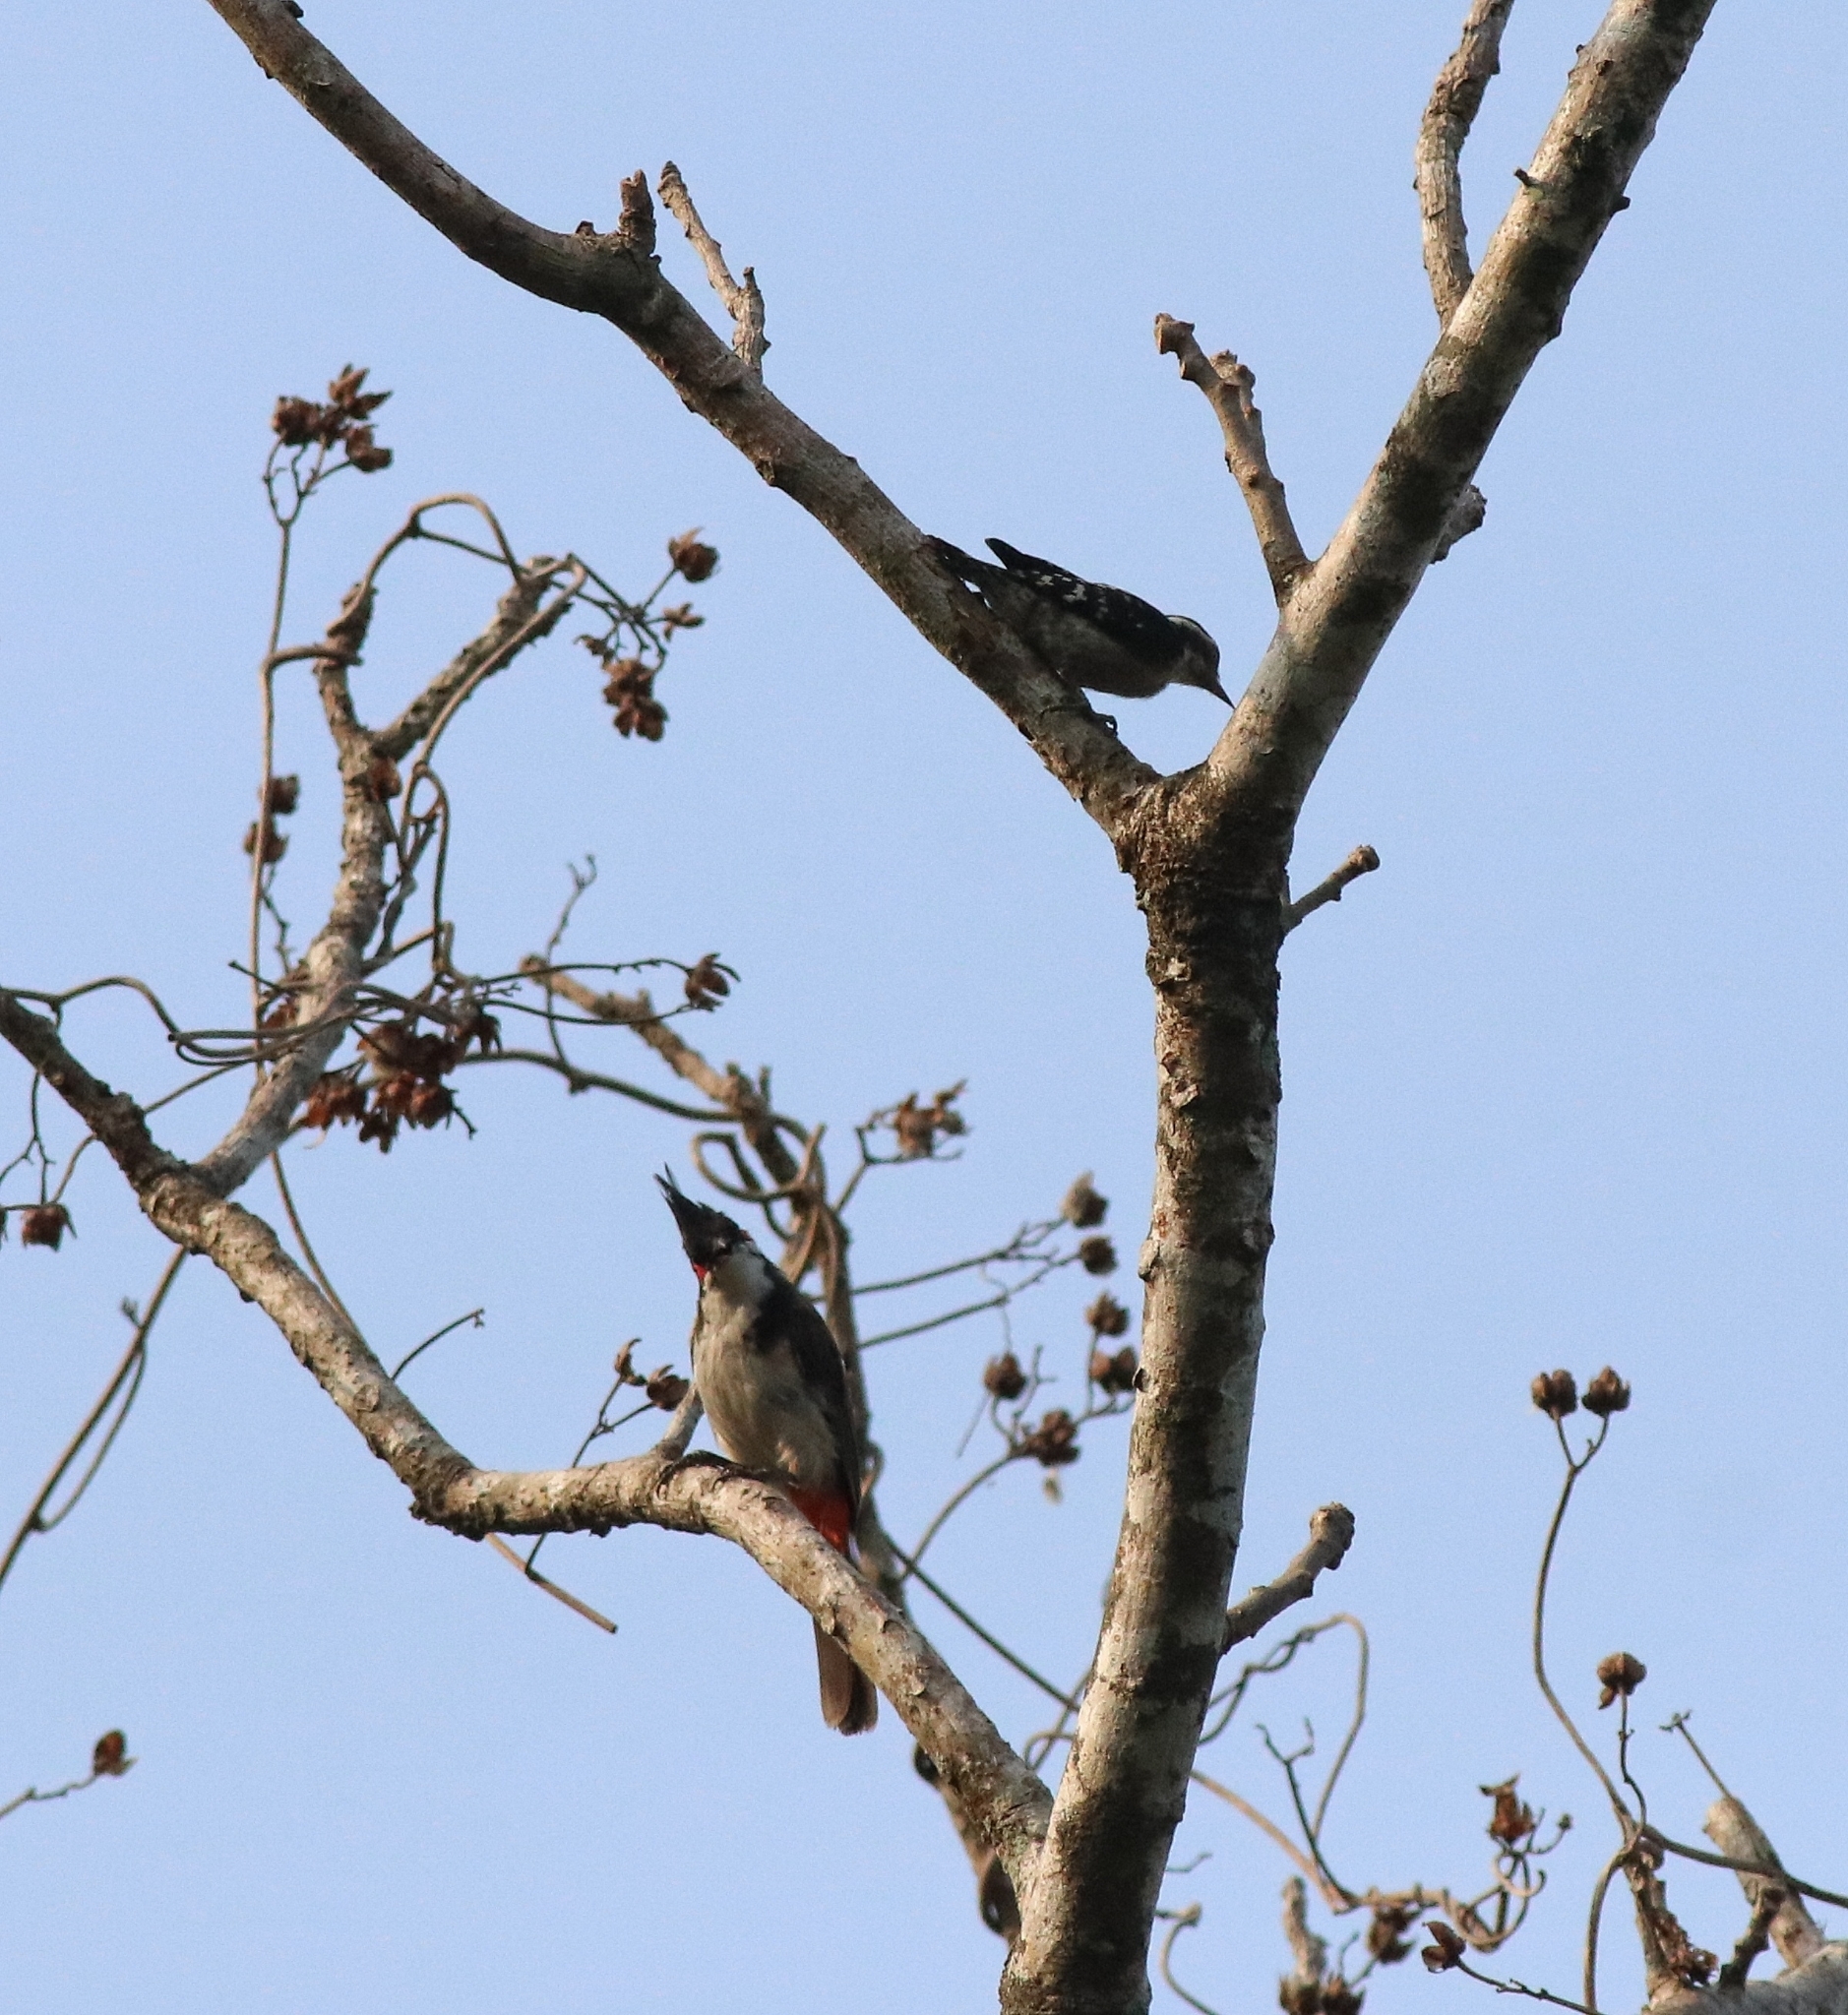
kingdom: Animalia
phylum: Chordata
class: Aves
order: Passeriformes
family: Pycnonotidae
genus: Pycnonotus
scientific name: Pycnonotus jocosus
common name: Red-whiskered bulbul
